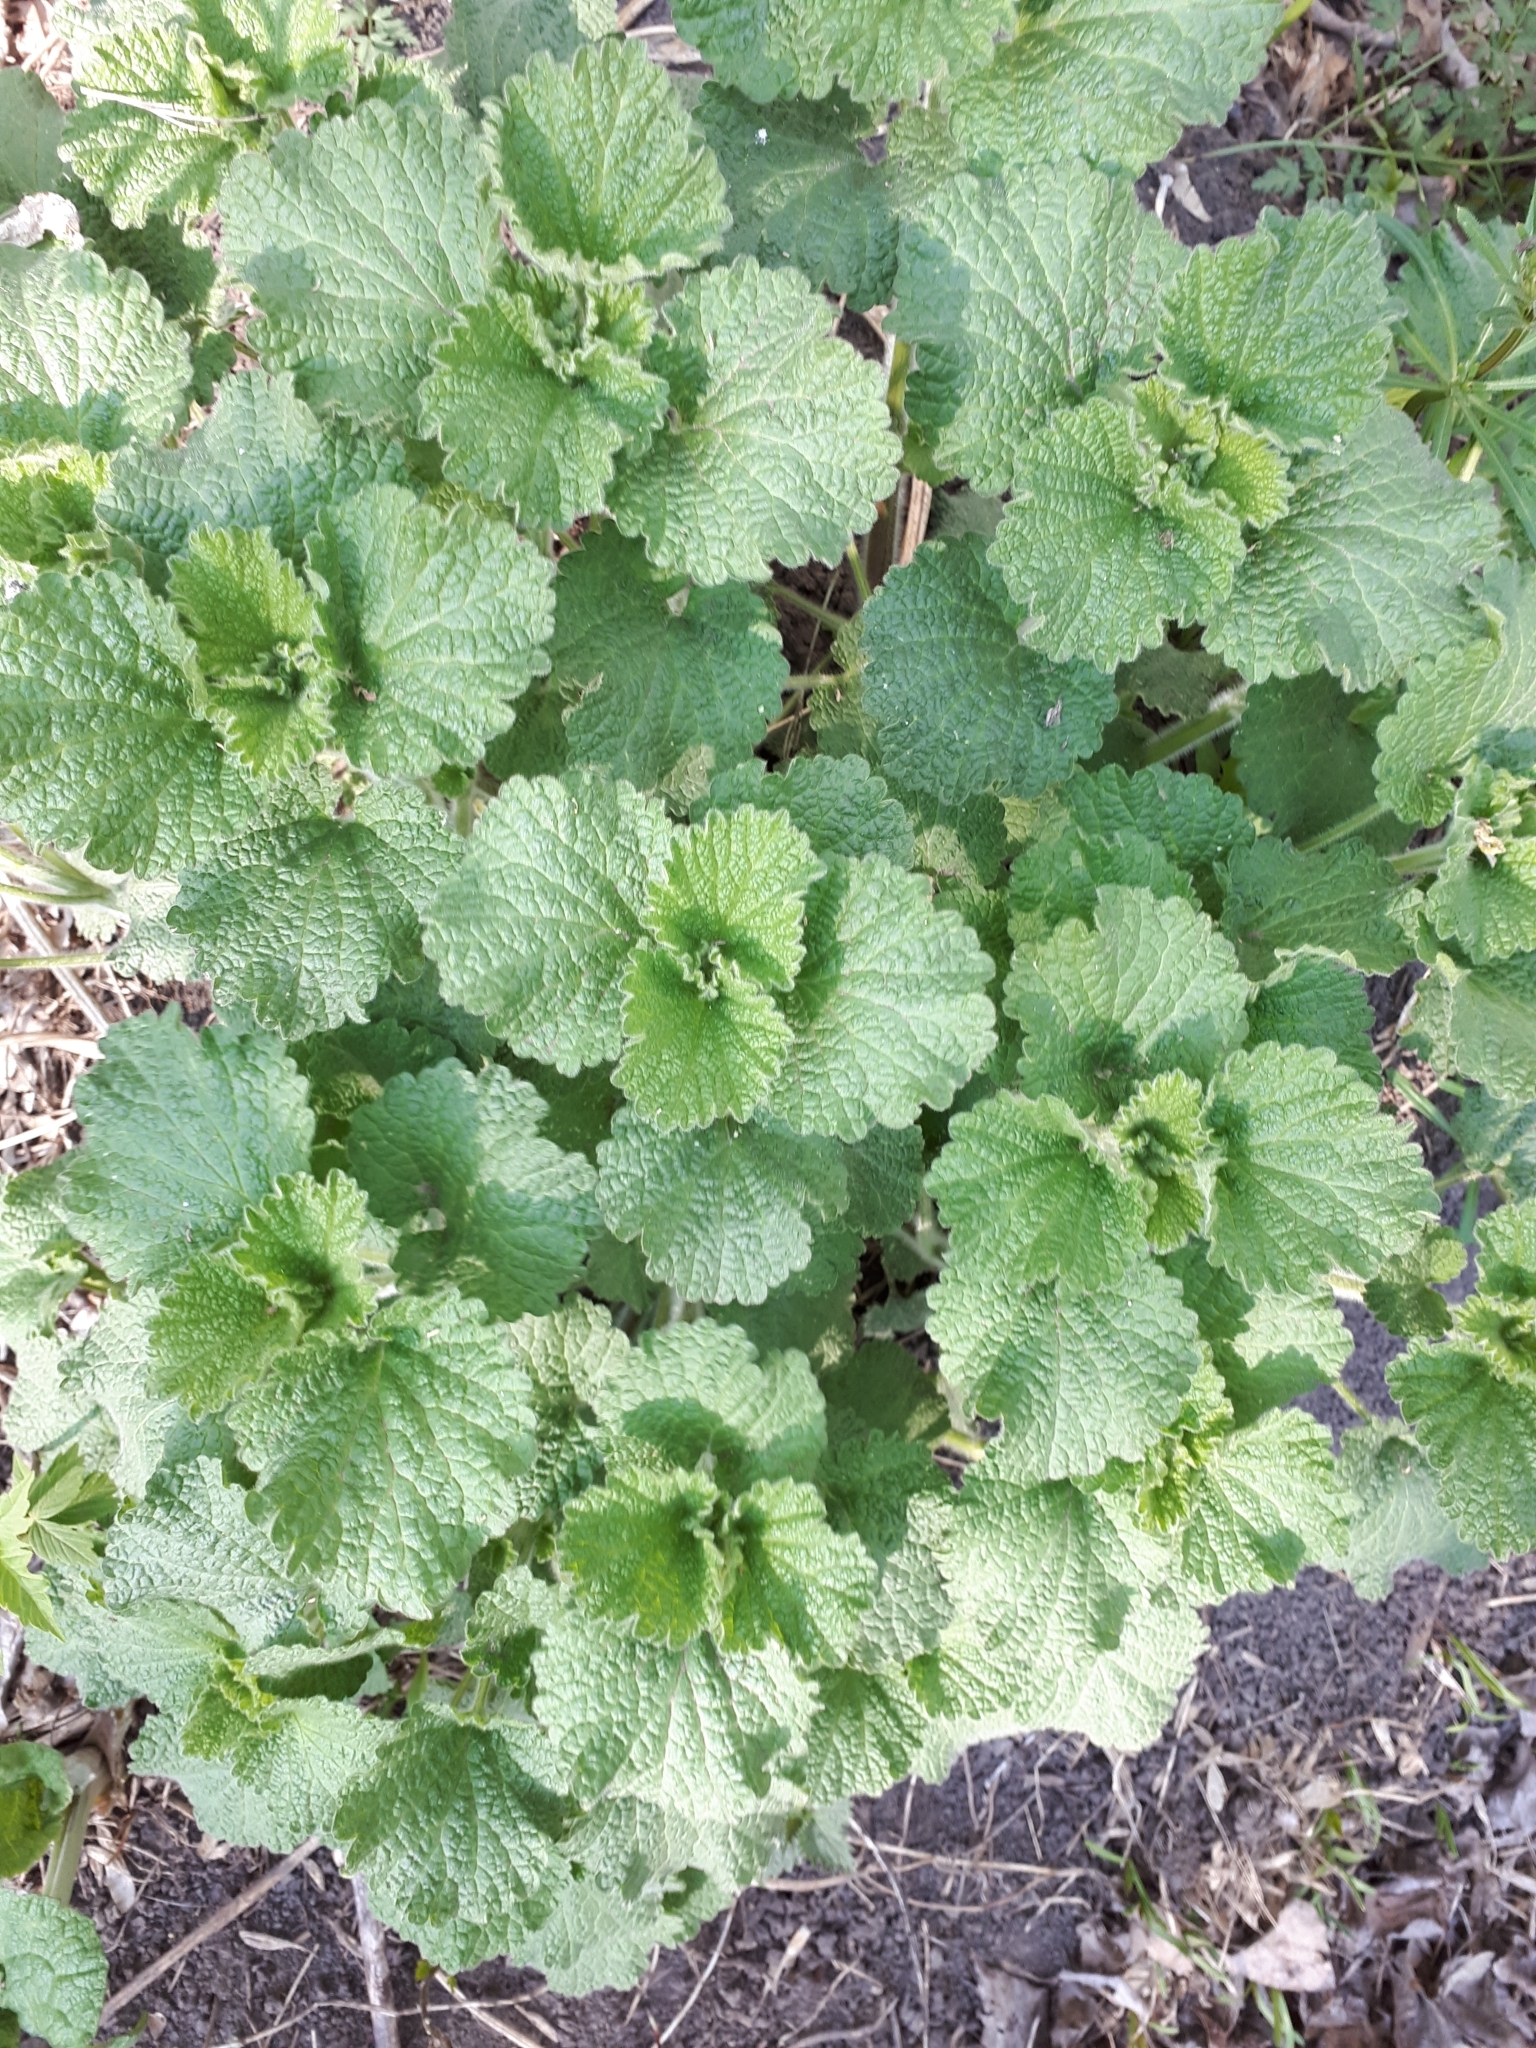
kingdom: Plantae
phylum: Tracheophyta
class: Magnoliopsida
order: Lamiales
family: Lamiaceae
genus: Ballota
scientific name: Ballota nigra
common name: Black horehound
